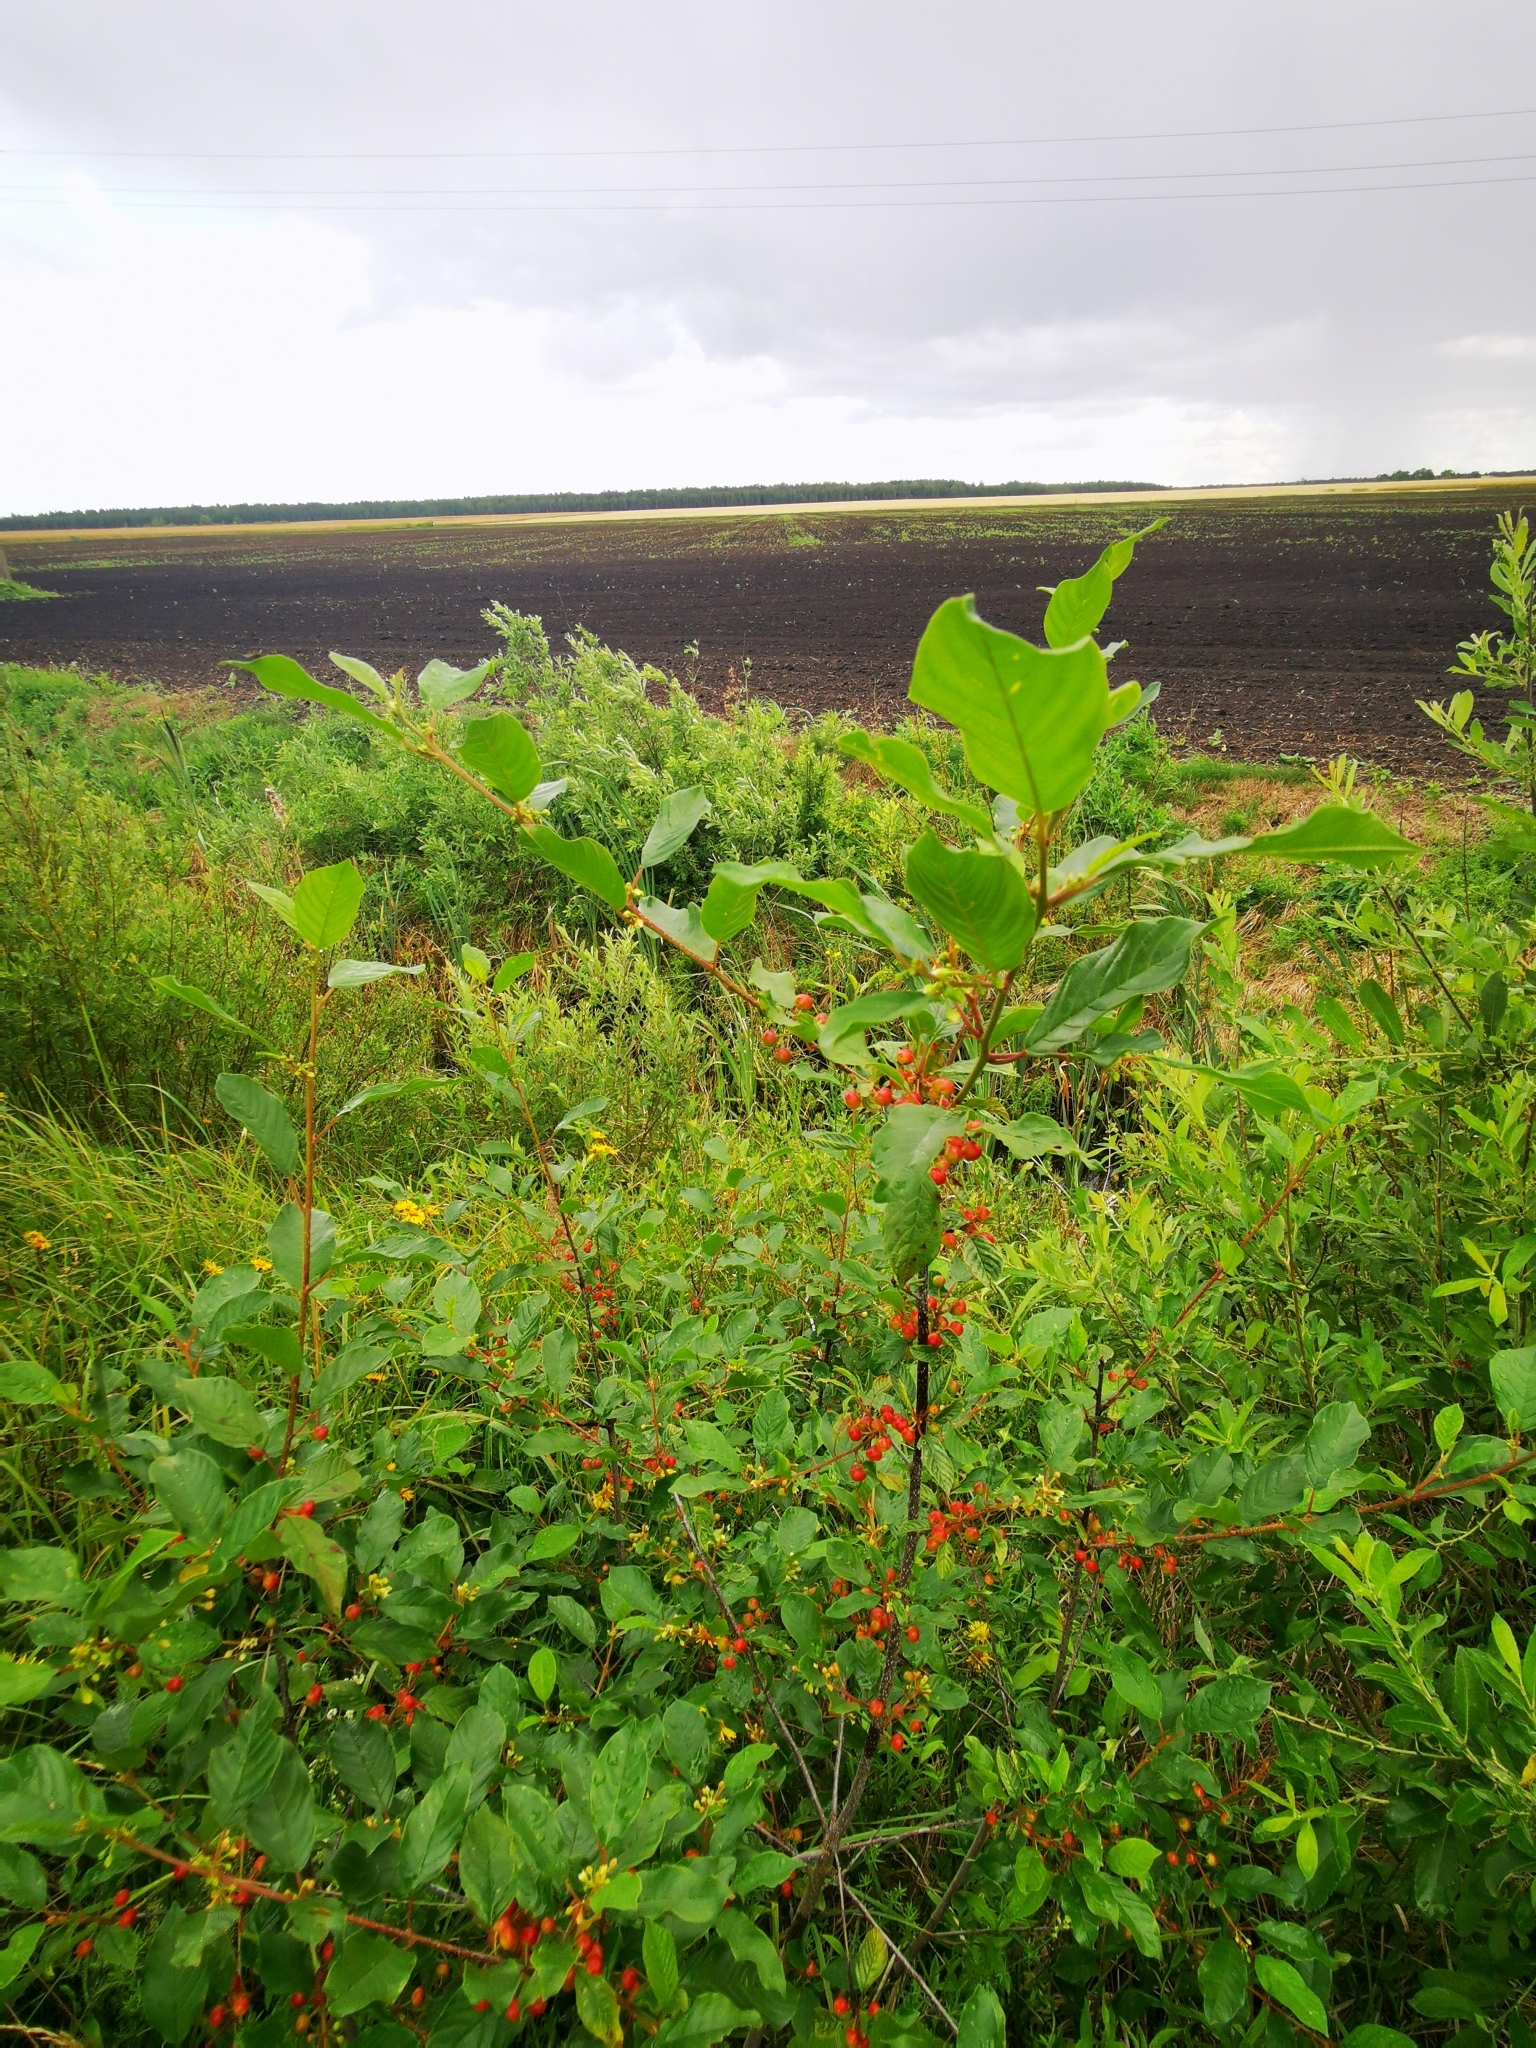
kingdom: Plantae
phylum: Tracheophyta
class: Magnoliopsida
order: Rosales
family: Rhamnaceae
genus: Frangula
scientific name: Frangula alnus
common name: Alder buckthorn
